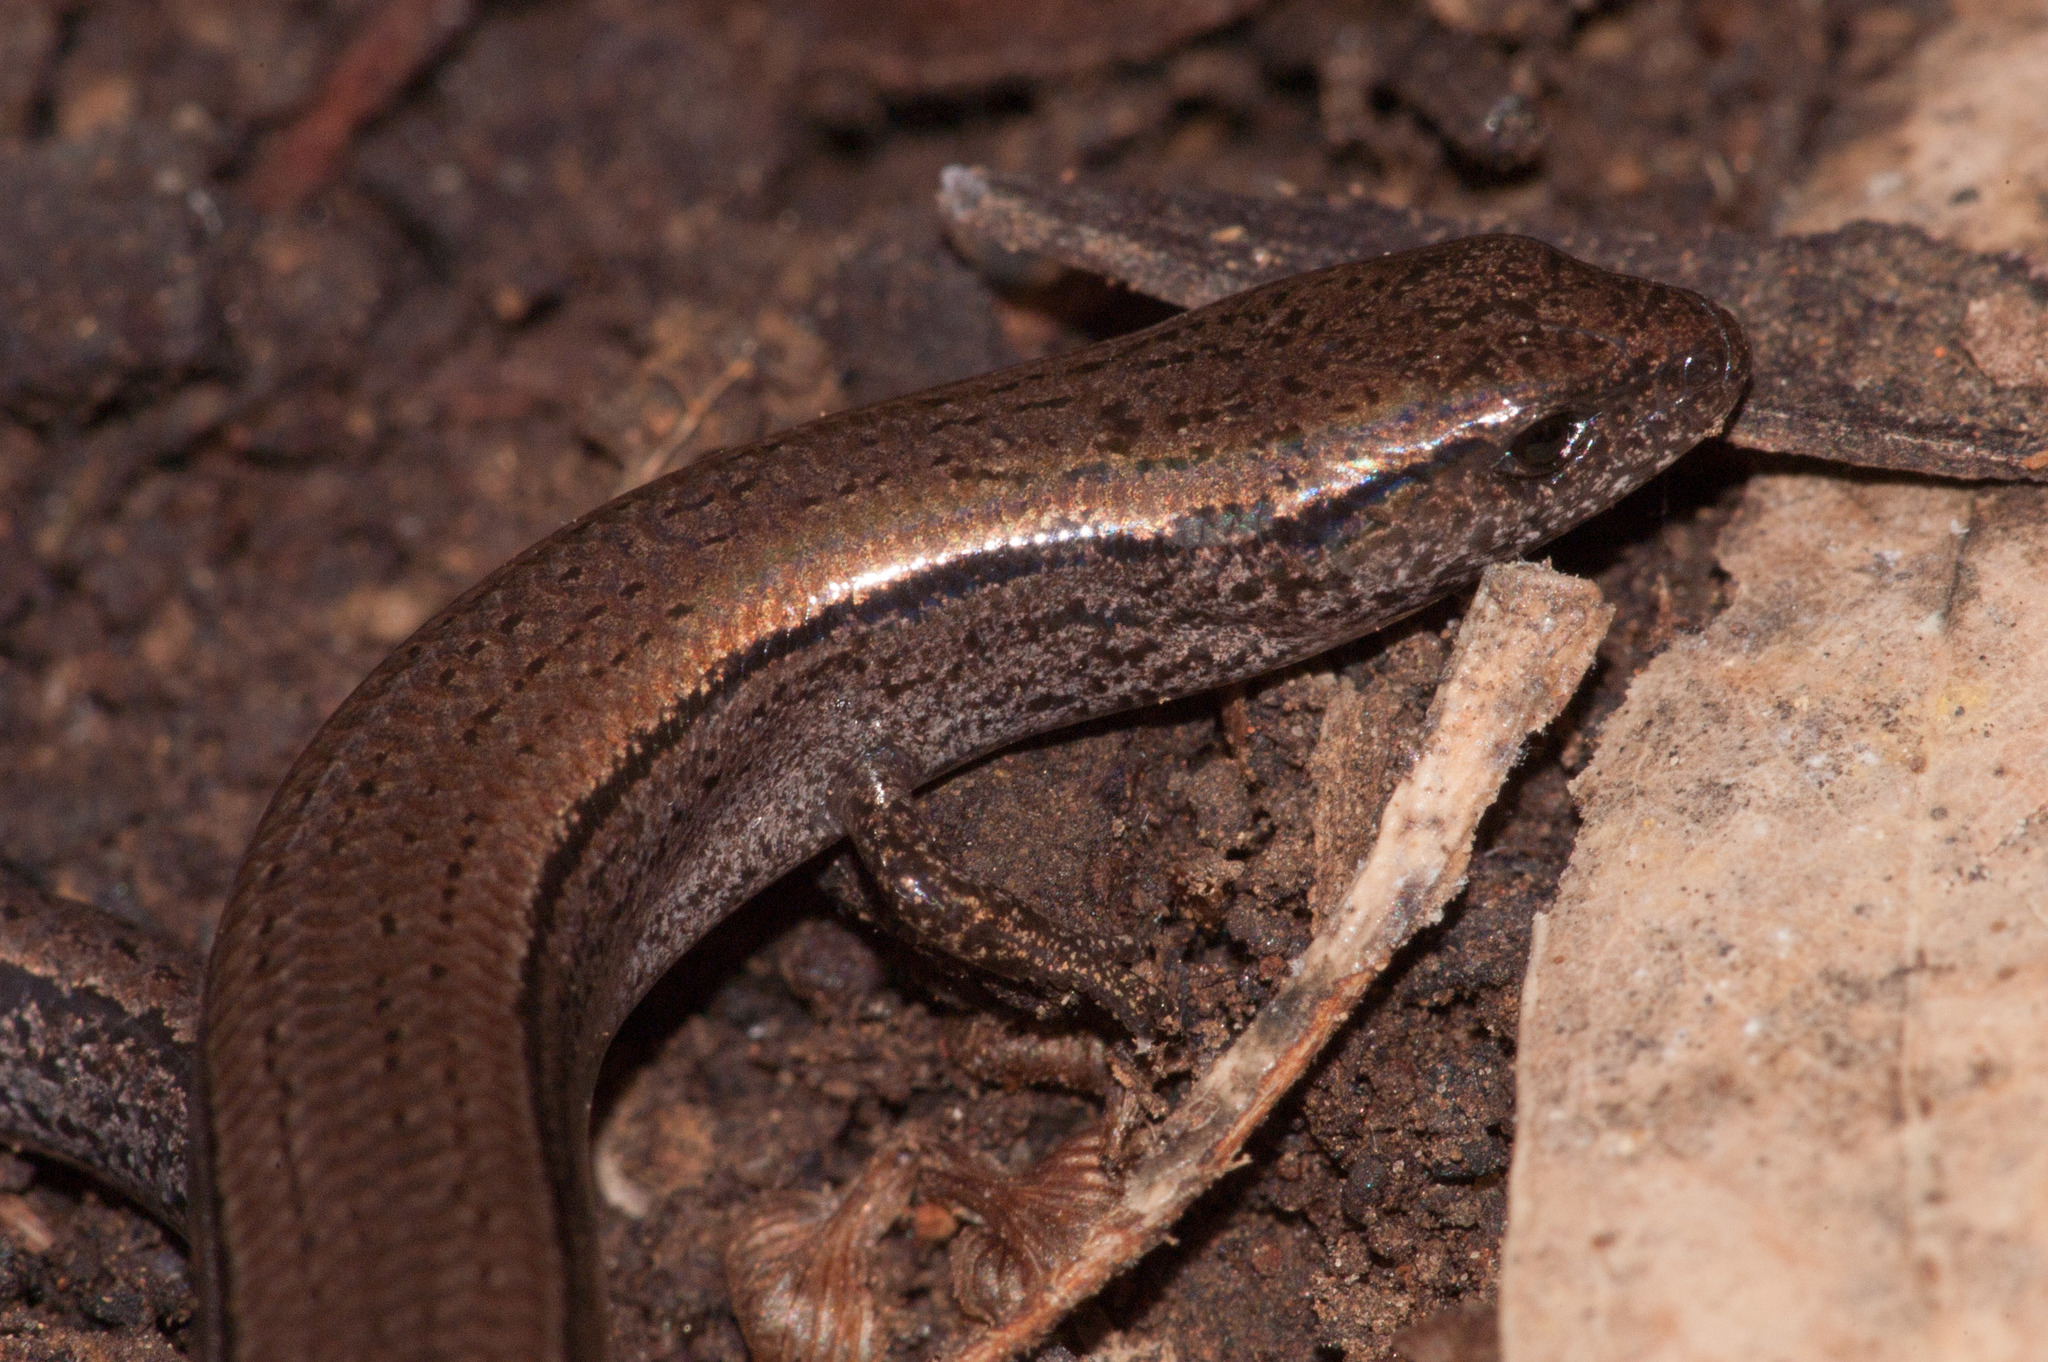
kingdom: Animalia
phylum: Chordata
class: Squamata
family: Scincidae
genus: Hemiergis
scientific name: Hemiergis decresiensis
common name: Three-toed earless skink
